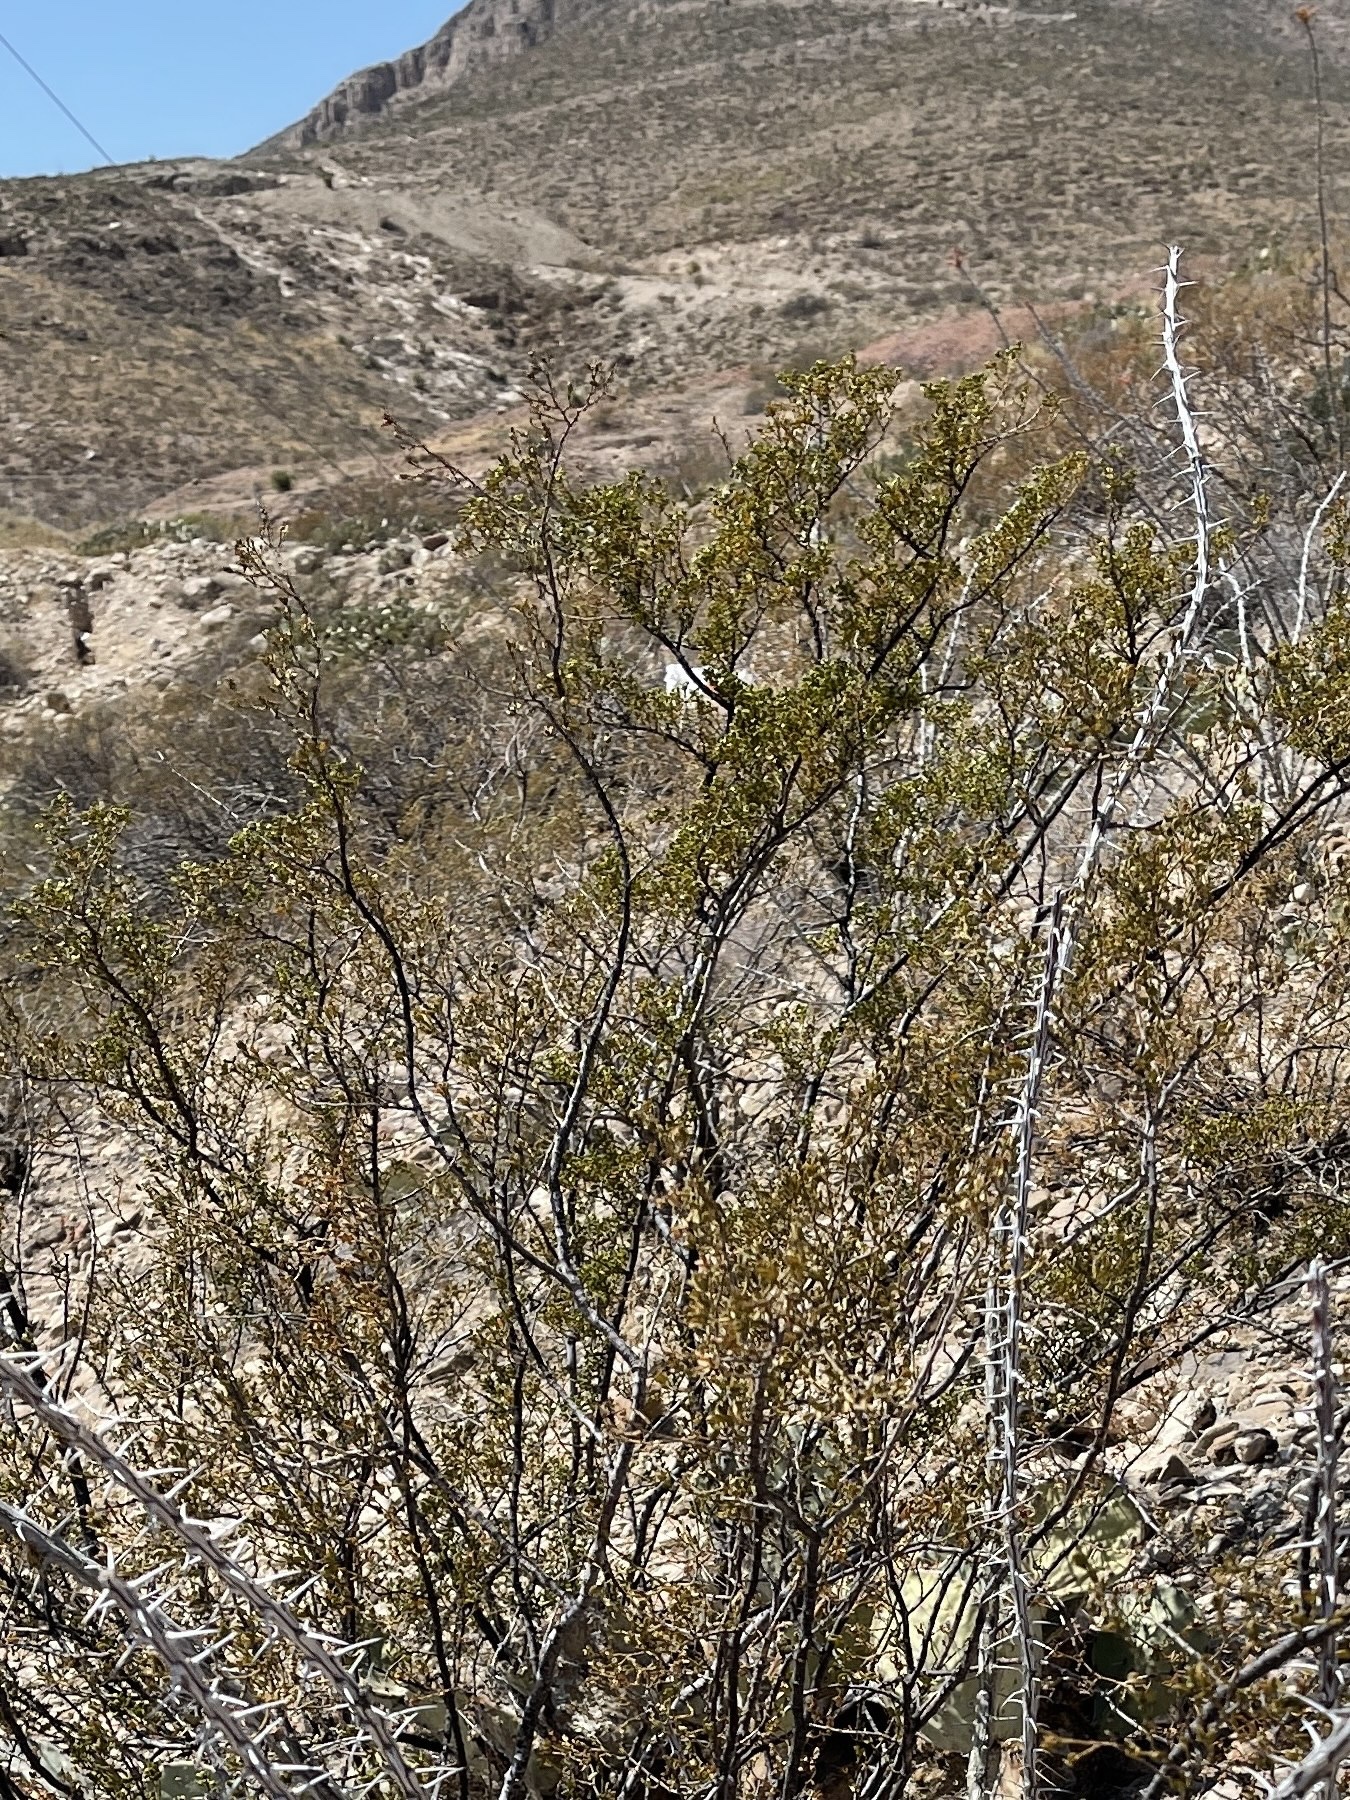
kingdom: Plantae
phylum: Tracheophyta
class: Magnoliopsida
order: Zygophyllales
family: Zygophyllaceae
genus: Larrea
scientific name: Larrea tridentata
